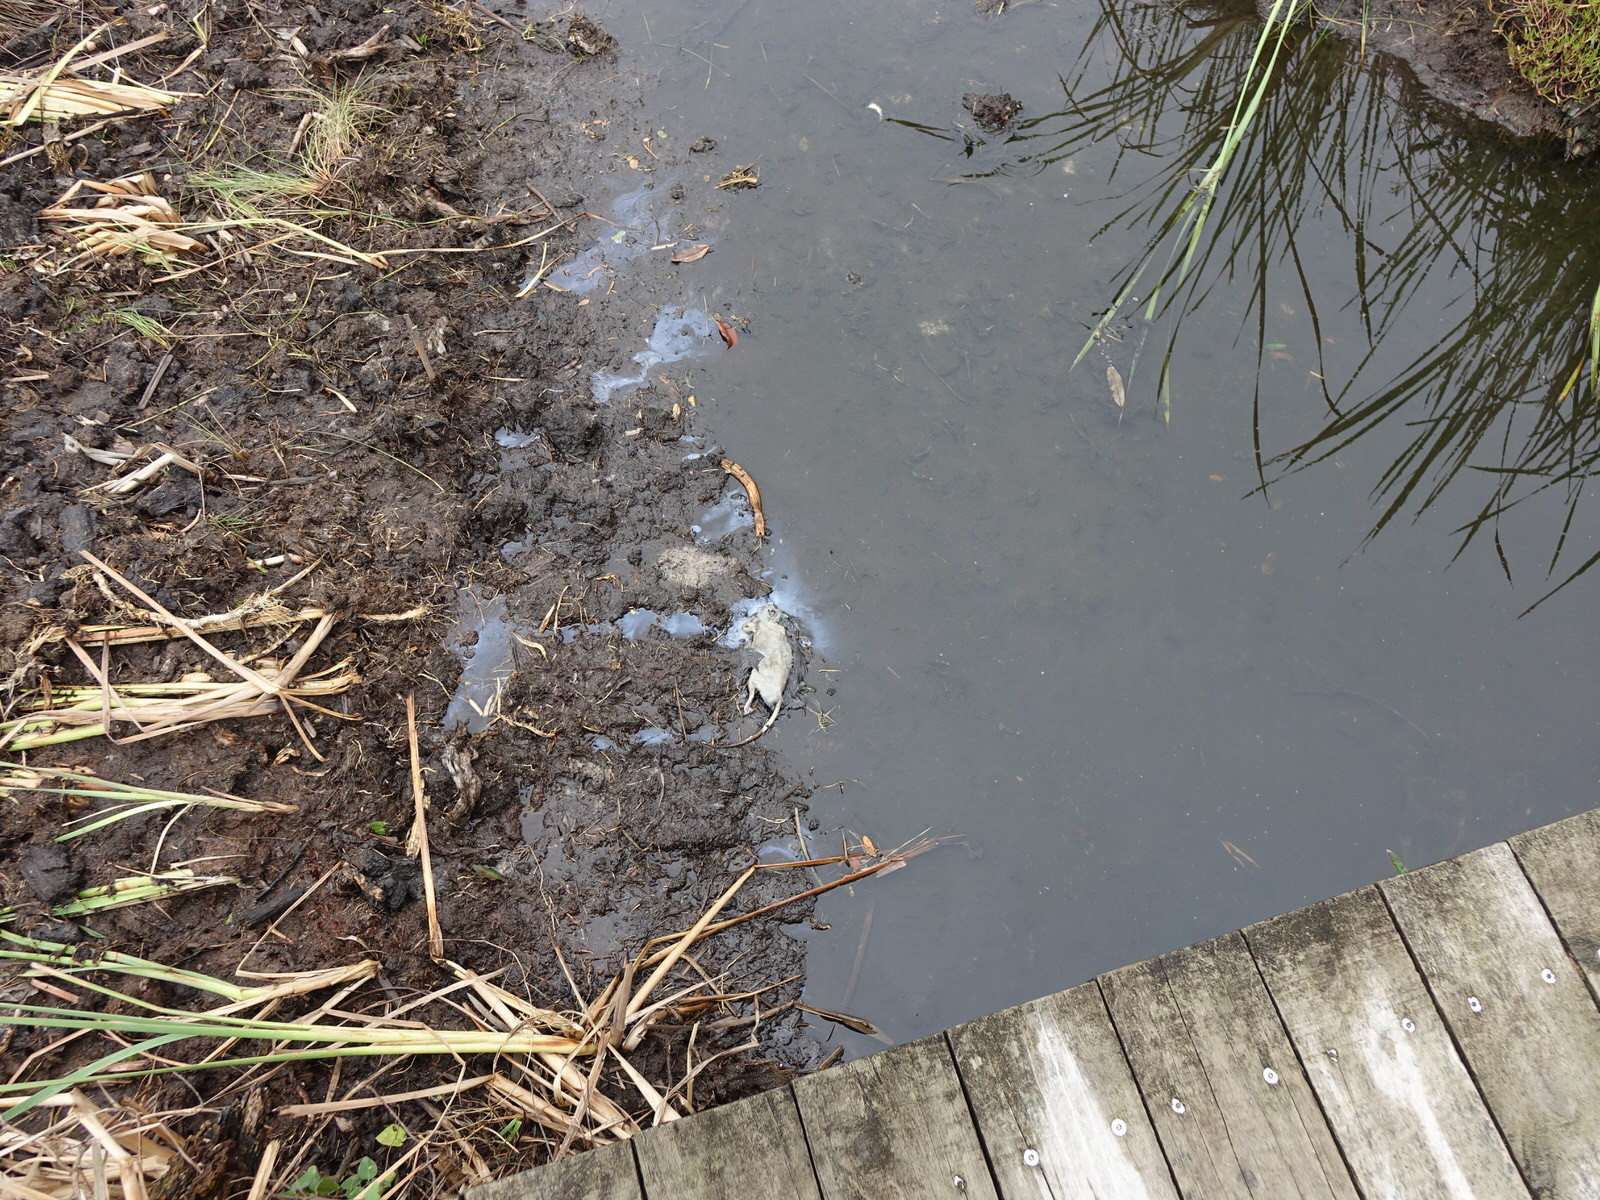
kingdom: Animalia
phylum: Chordata
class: Mammalia
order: Rodentia
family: Muridae
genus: Rattus
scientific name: Rattus norvegicus
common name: Brown rat
